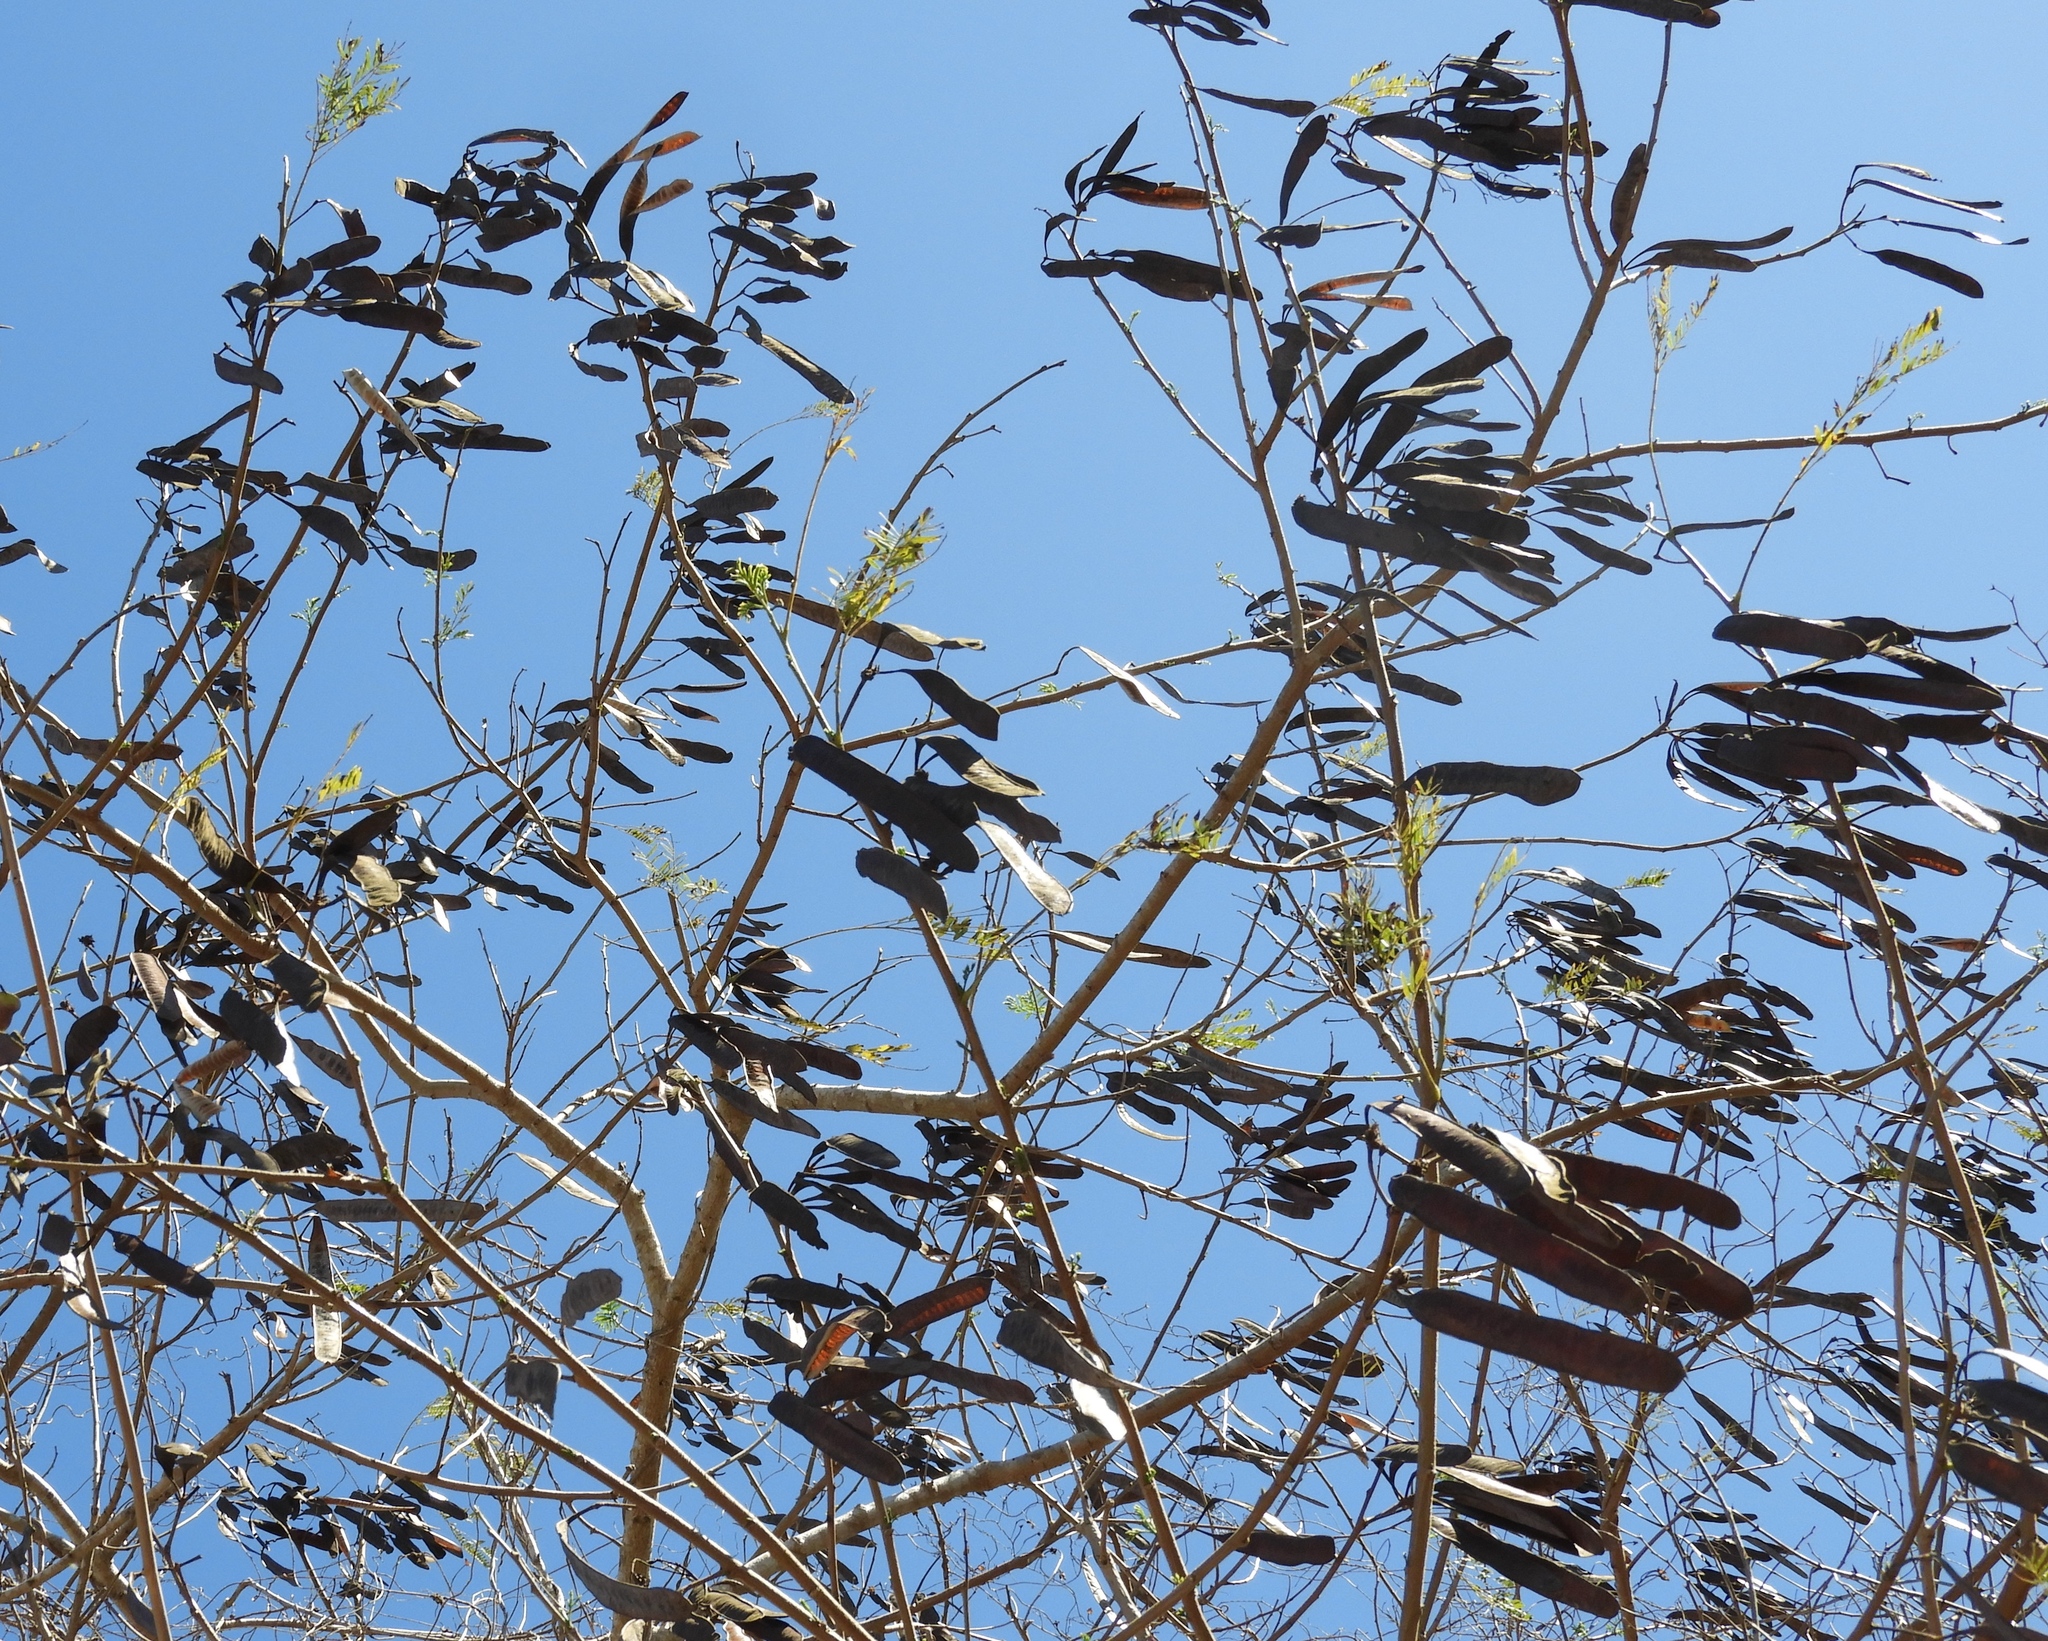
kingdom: Plantae
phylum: Tracheophyta
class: Magnoliopsida
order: Fabales
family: Fabaceae
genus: Leucaena
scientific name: Leucaena leucocephala
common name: White leadtree
